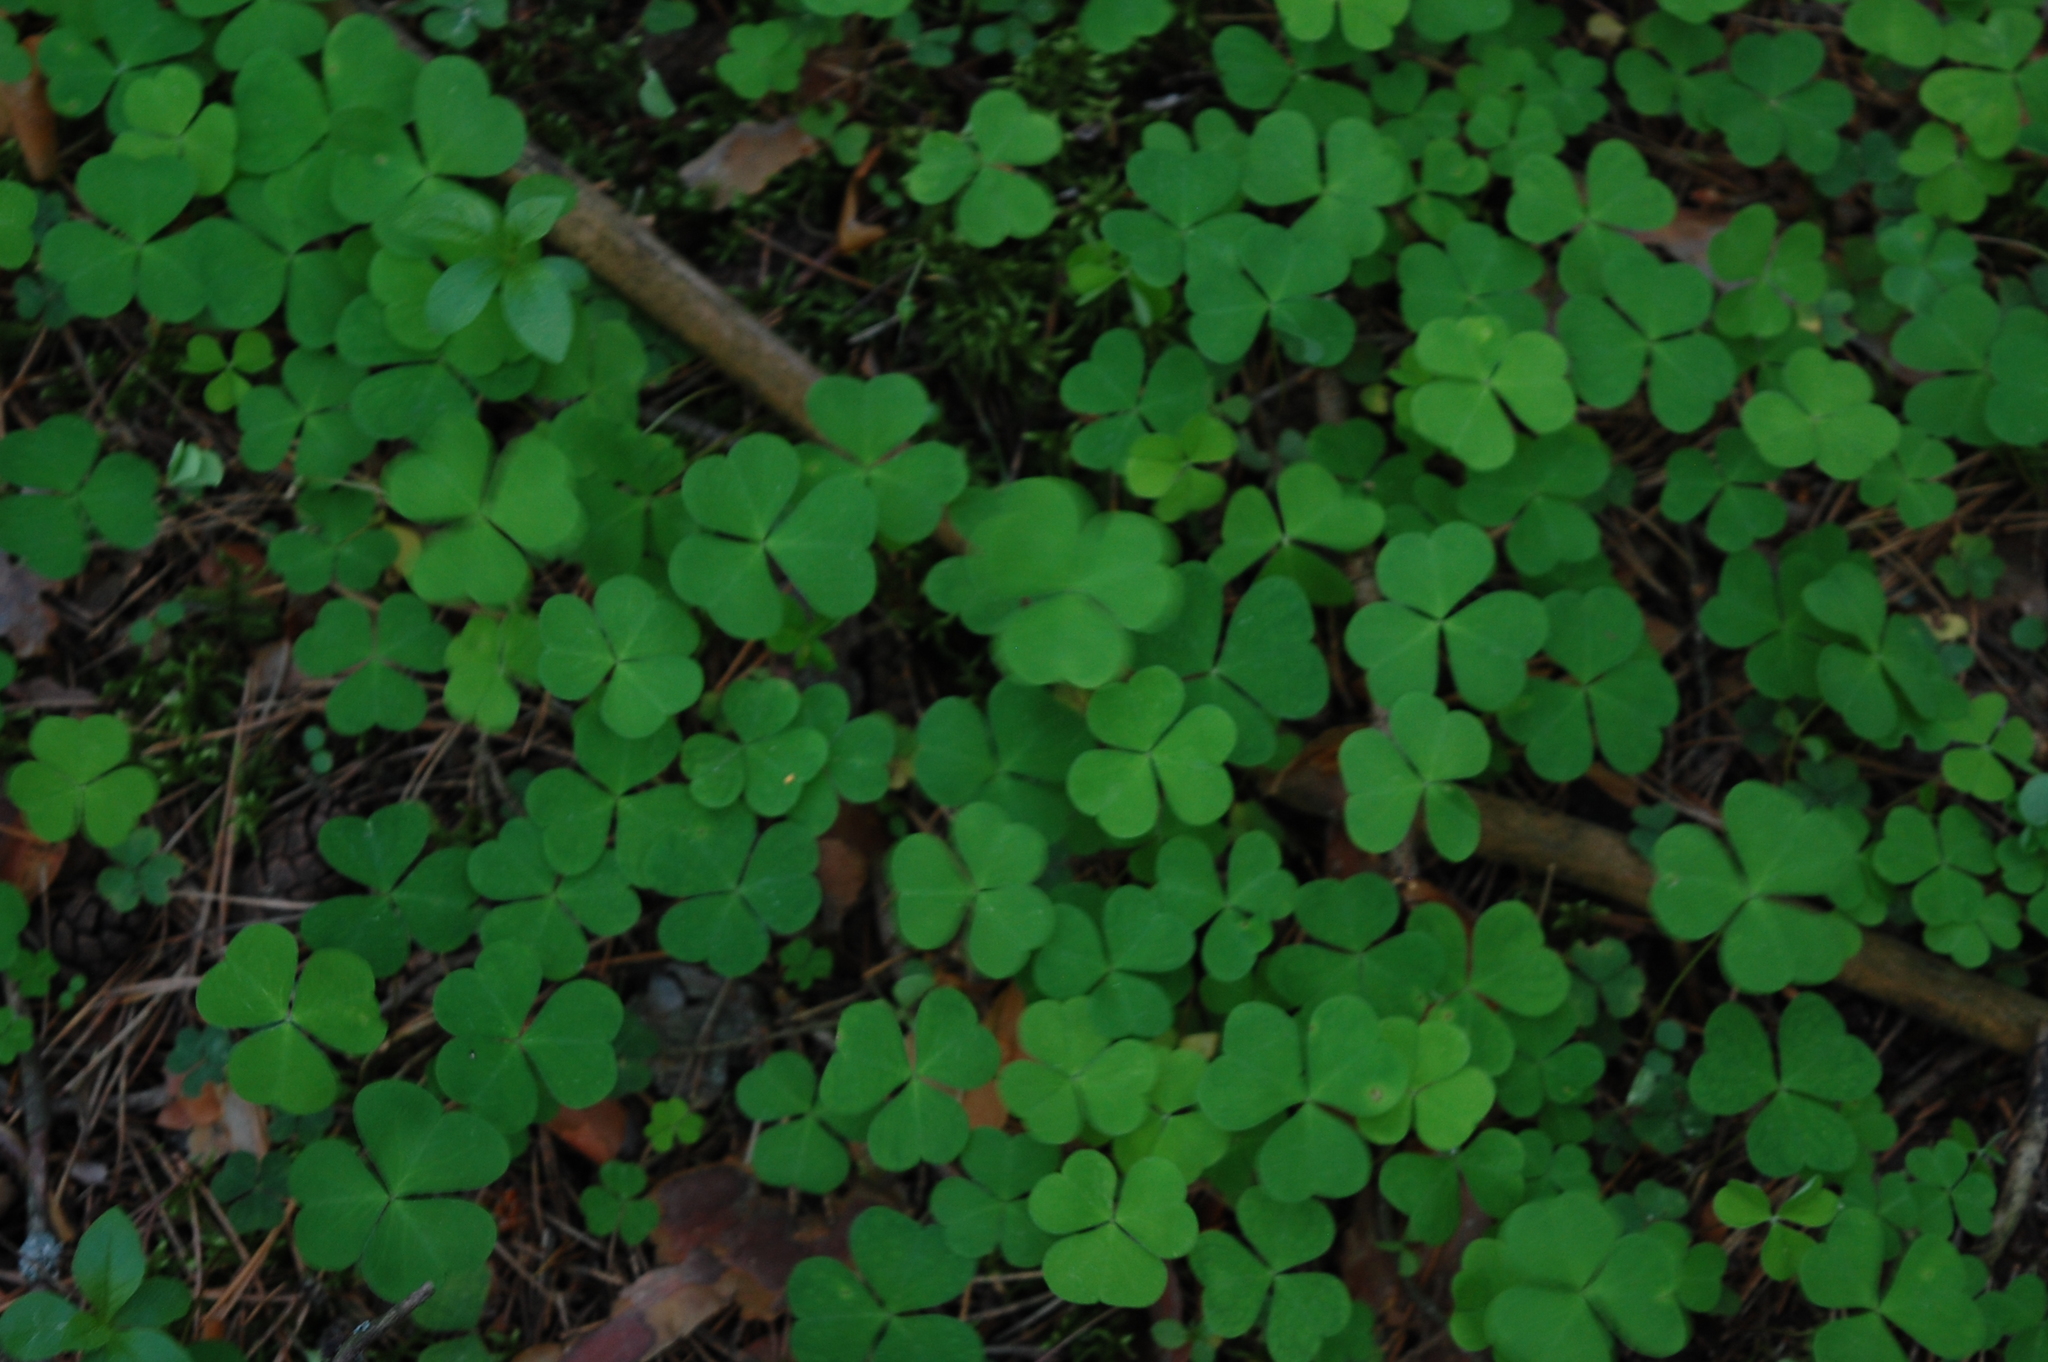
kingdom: Plantae
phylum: Tracheophyta
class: Magnoliopsida
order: Oxalidales
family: Oxalidaceae
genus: Oxalis
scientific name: Oxalis acetosella
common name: Wood-sorrel
